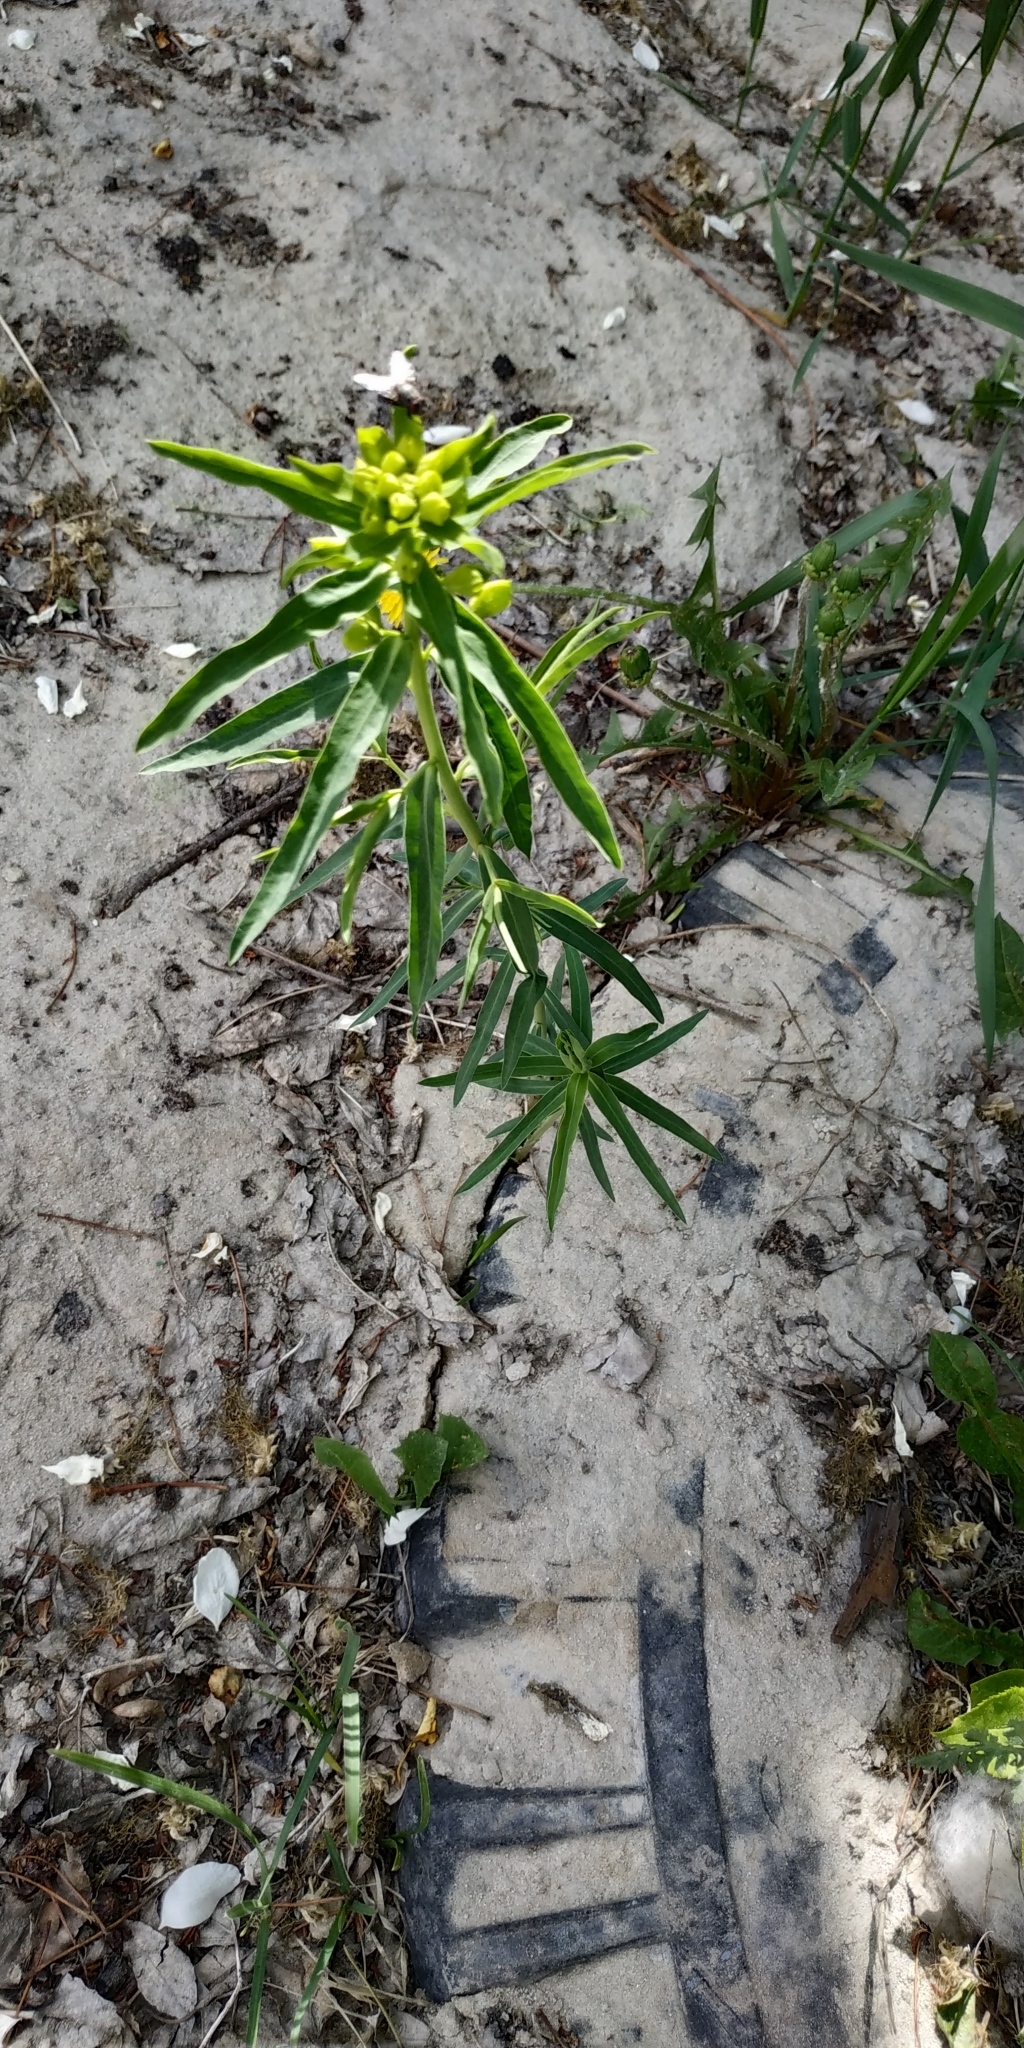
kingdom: Plantae
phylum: Tracheophyta
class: Magnoliopsida
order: Malpighiales
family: Euphorbiaceae
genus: Euphorbia
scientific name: Euphorbia virgata
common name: Leafy spurge
